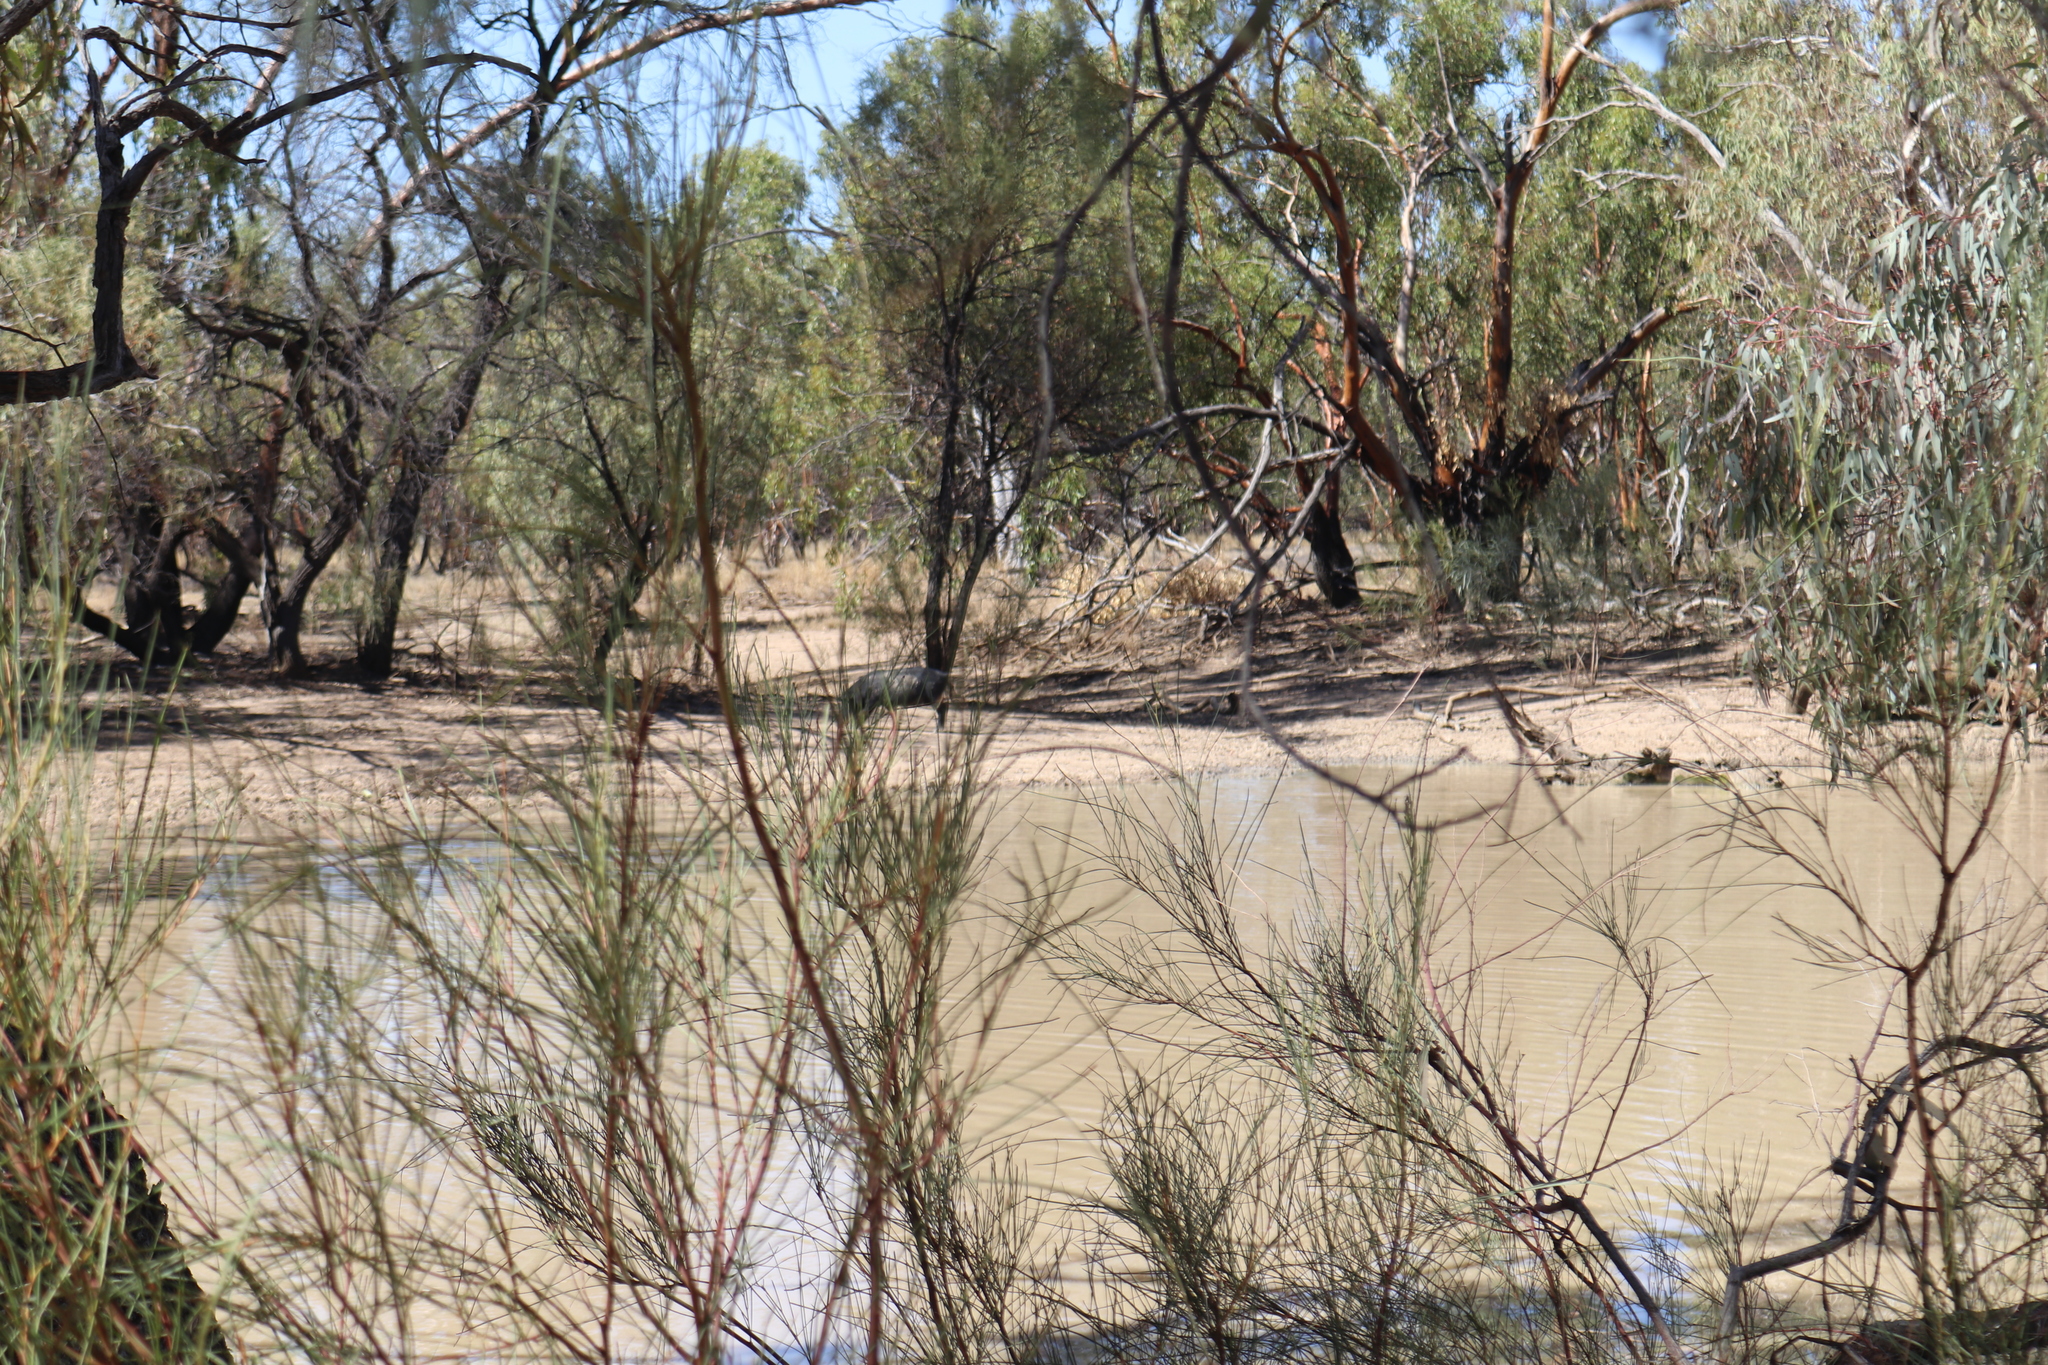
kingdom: Animalia
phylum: Chordata
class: Mammalia
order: Artiodactyla
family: Suidae
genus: Sus
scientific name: Sus scrofa
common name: Wild boar
